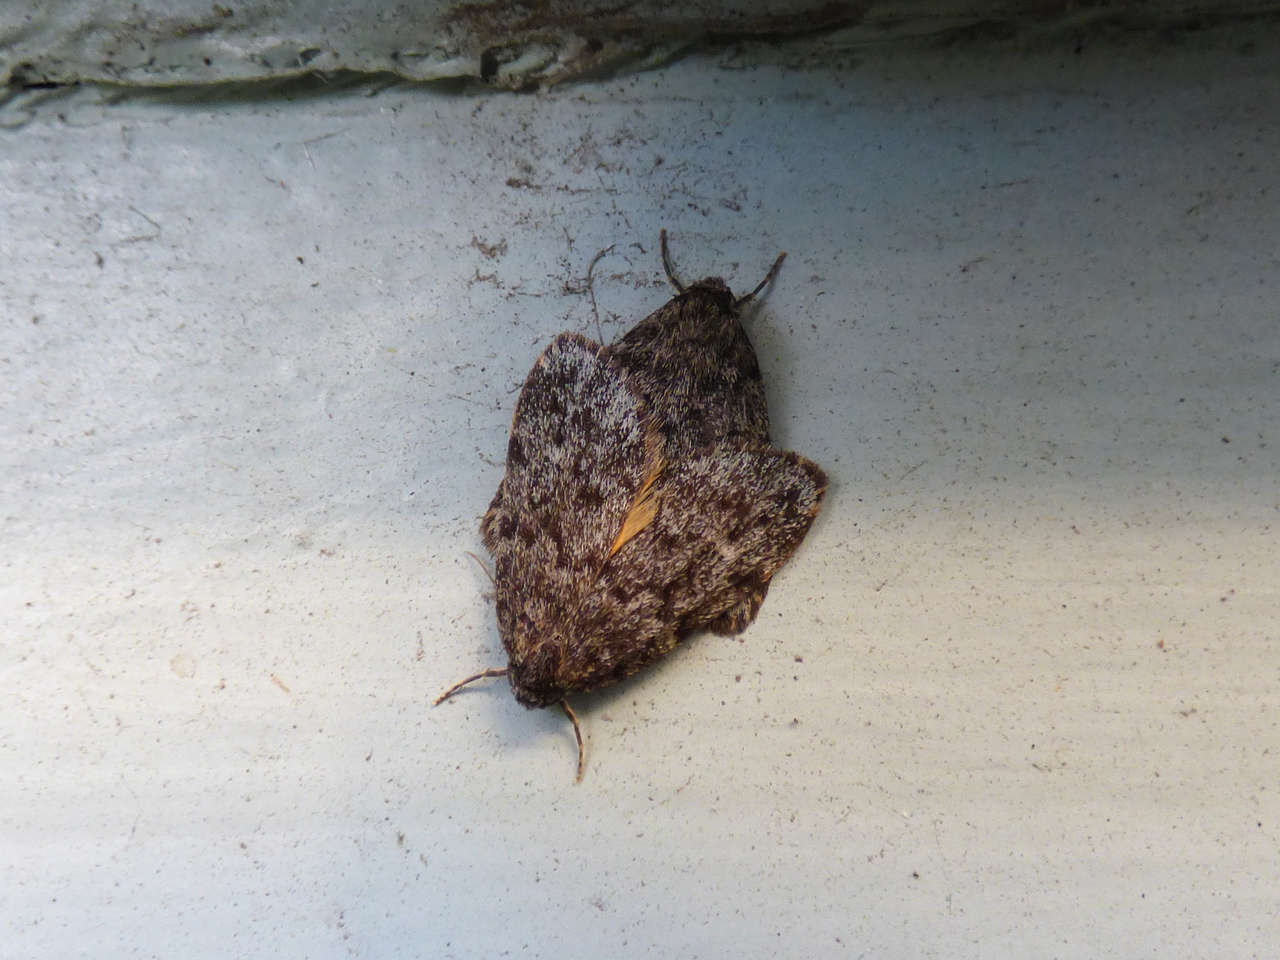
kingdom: Animalia
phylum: Arthropoda
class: Insecta
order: Lepidoptera
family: Erebidae
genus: Halone
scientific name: Halone consolatrix
